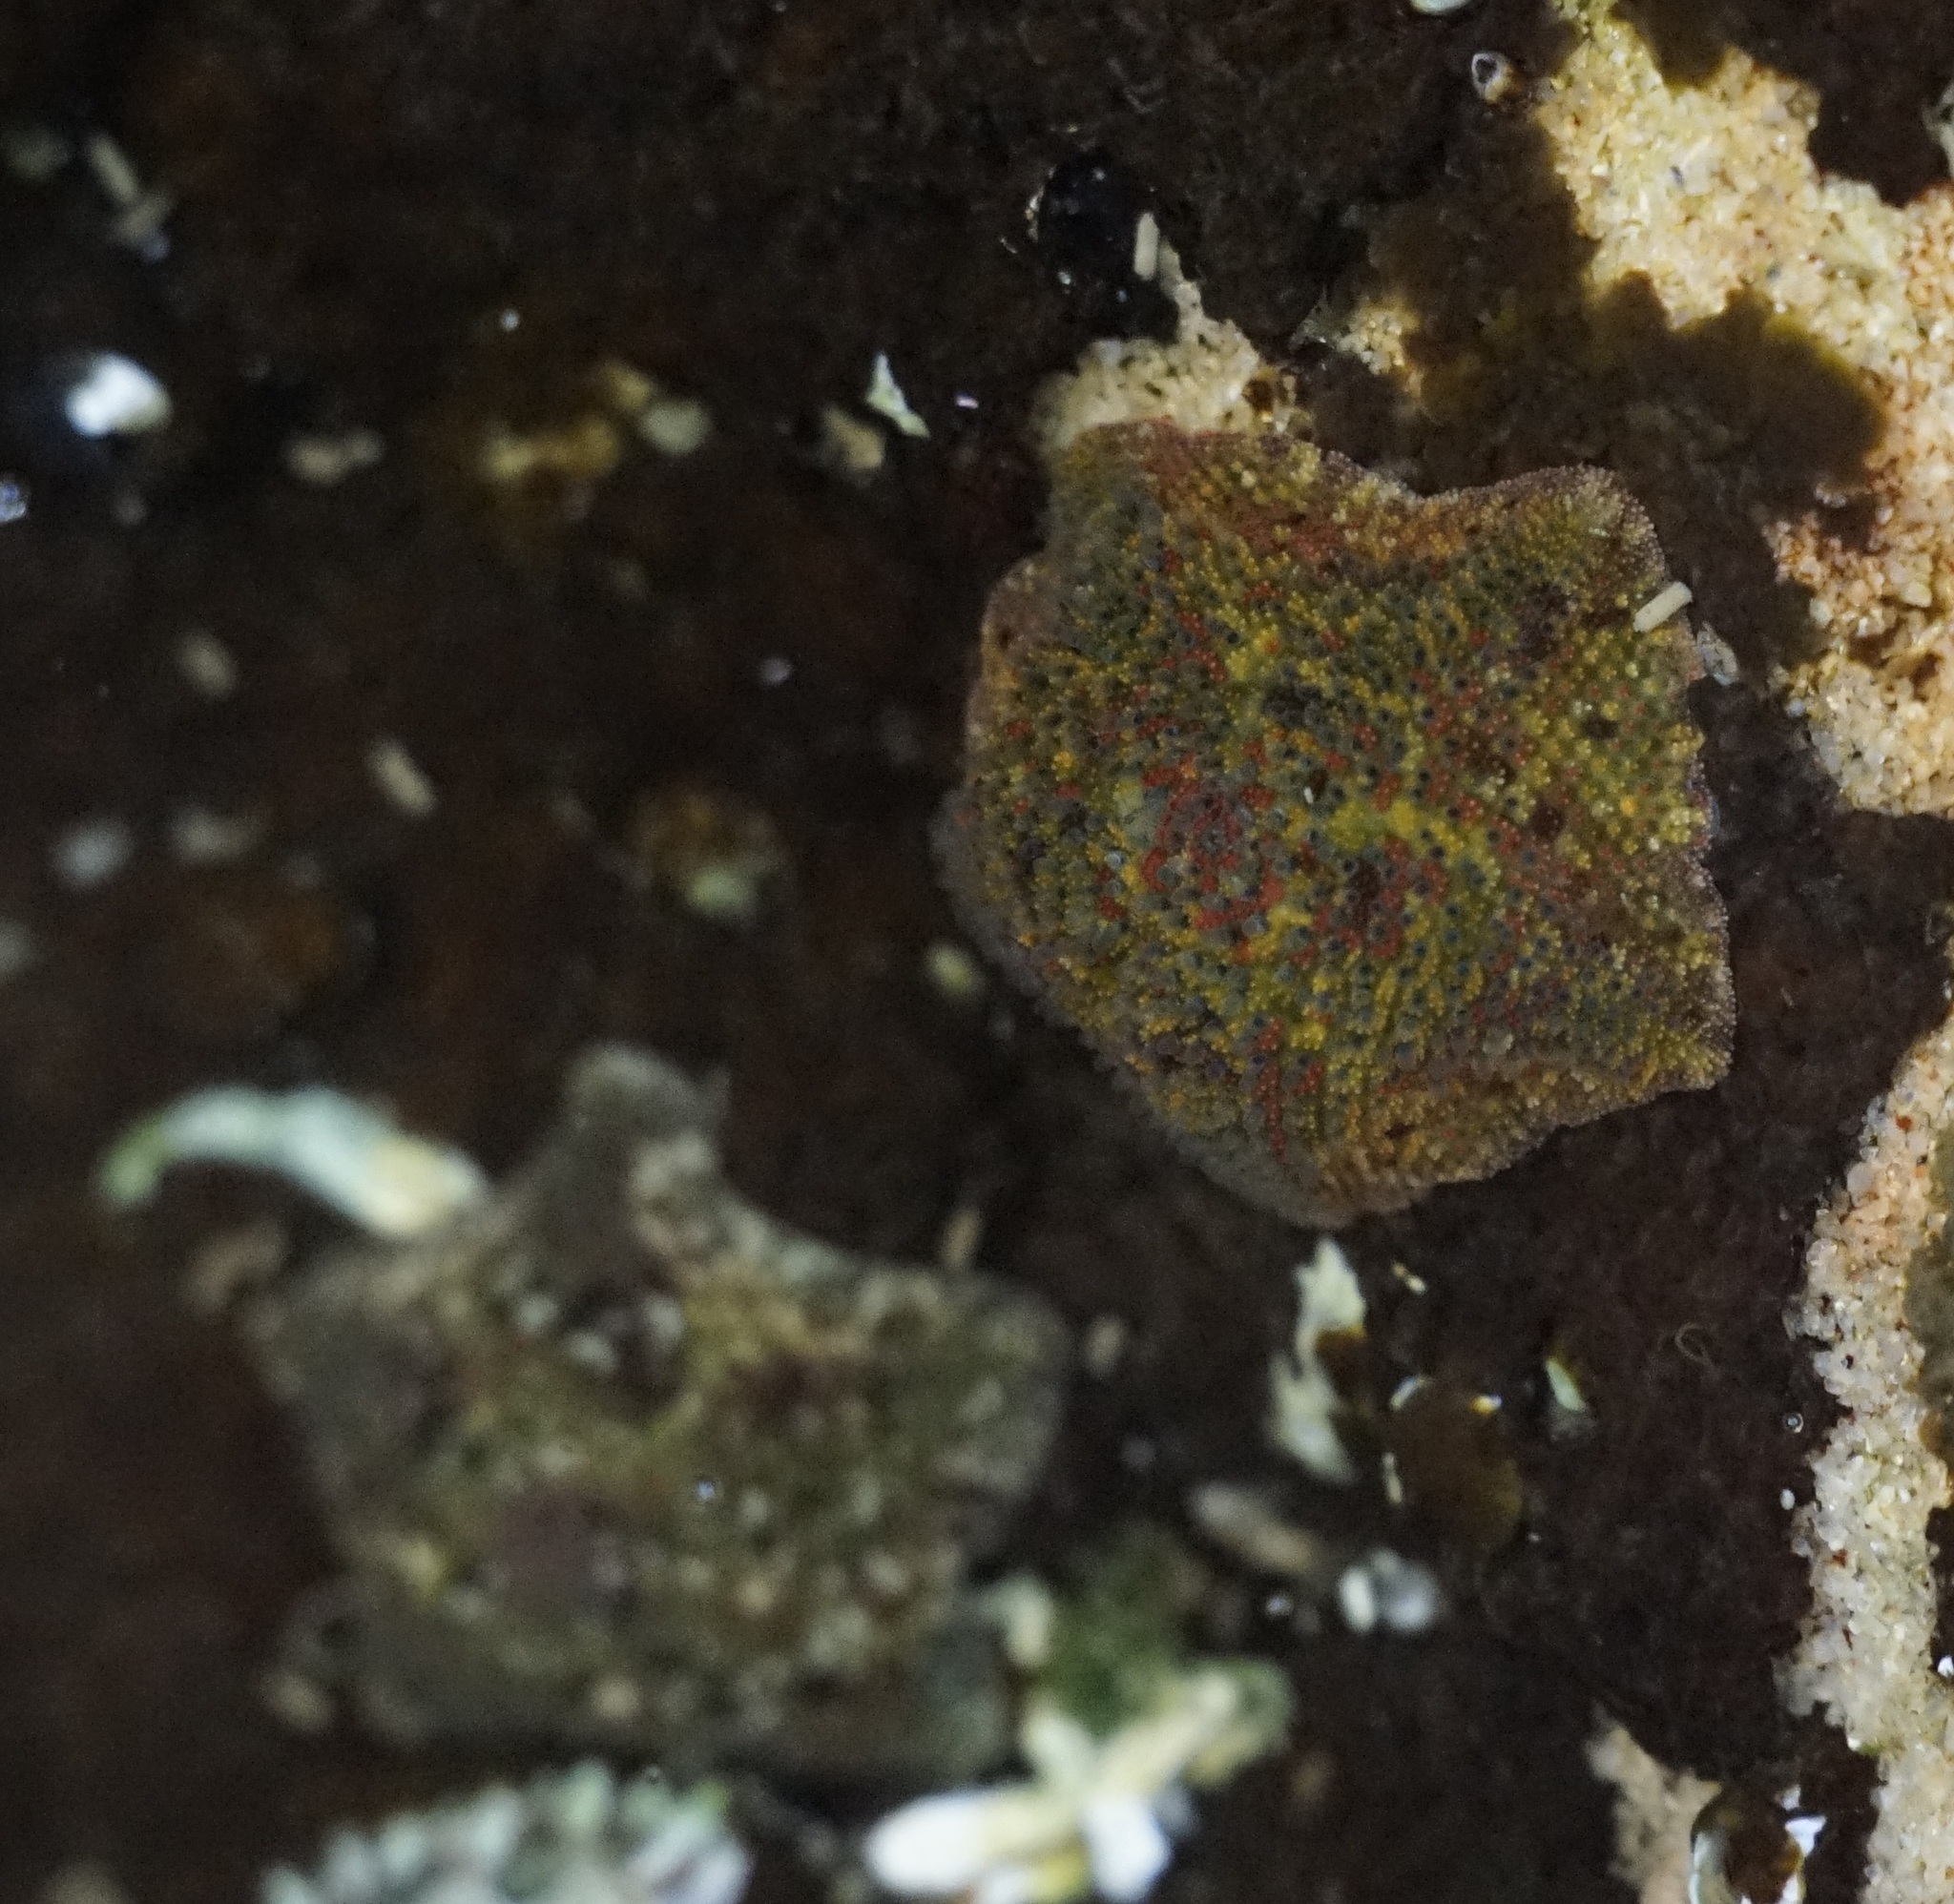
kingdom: Animalia
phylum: Echinodermata
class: Asteroidea
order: Valvatida
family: Asterinidae
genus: Parvulastra
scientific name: Parvulastra exigua
